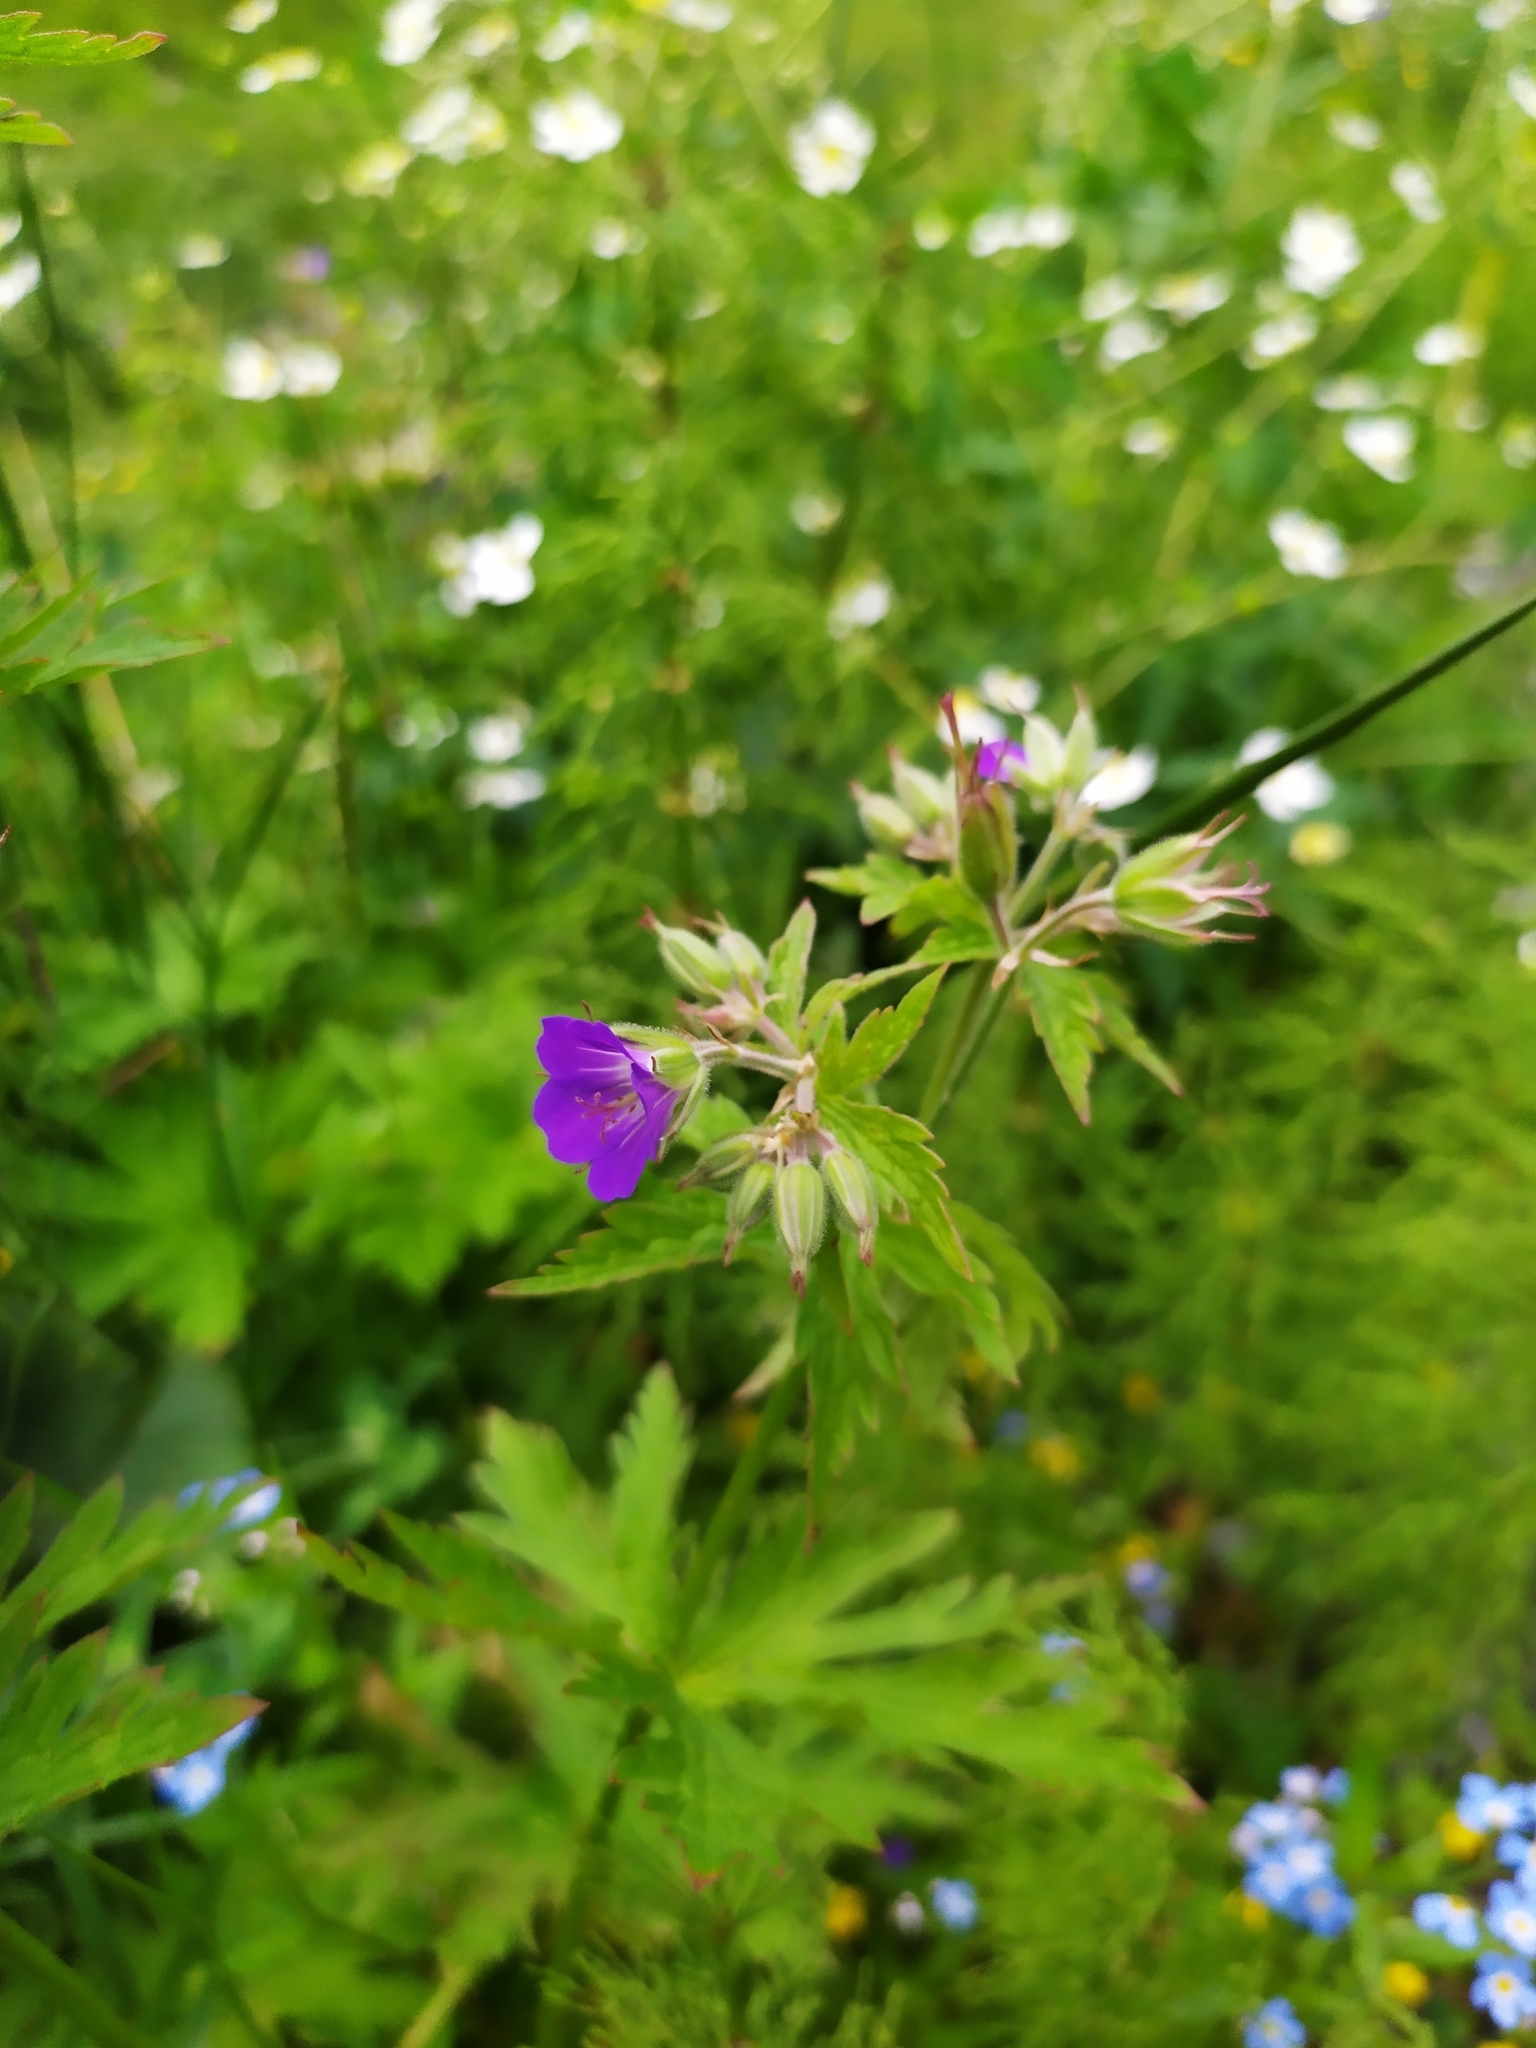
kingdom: Plantae
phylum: Tracheophyta
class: Magnoliopsida
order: Geraniales
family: Geraniaceae
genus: Geranium
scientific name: Geranium sylvaticum
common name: Wood crane's-bill
